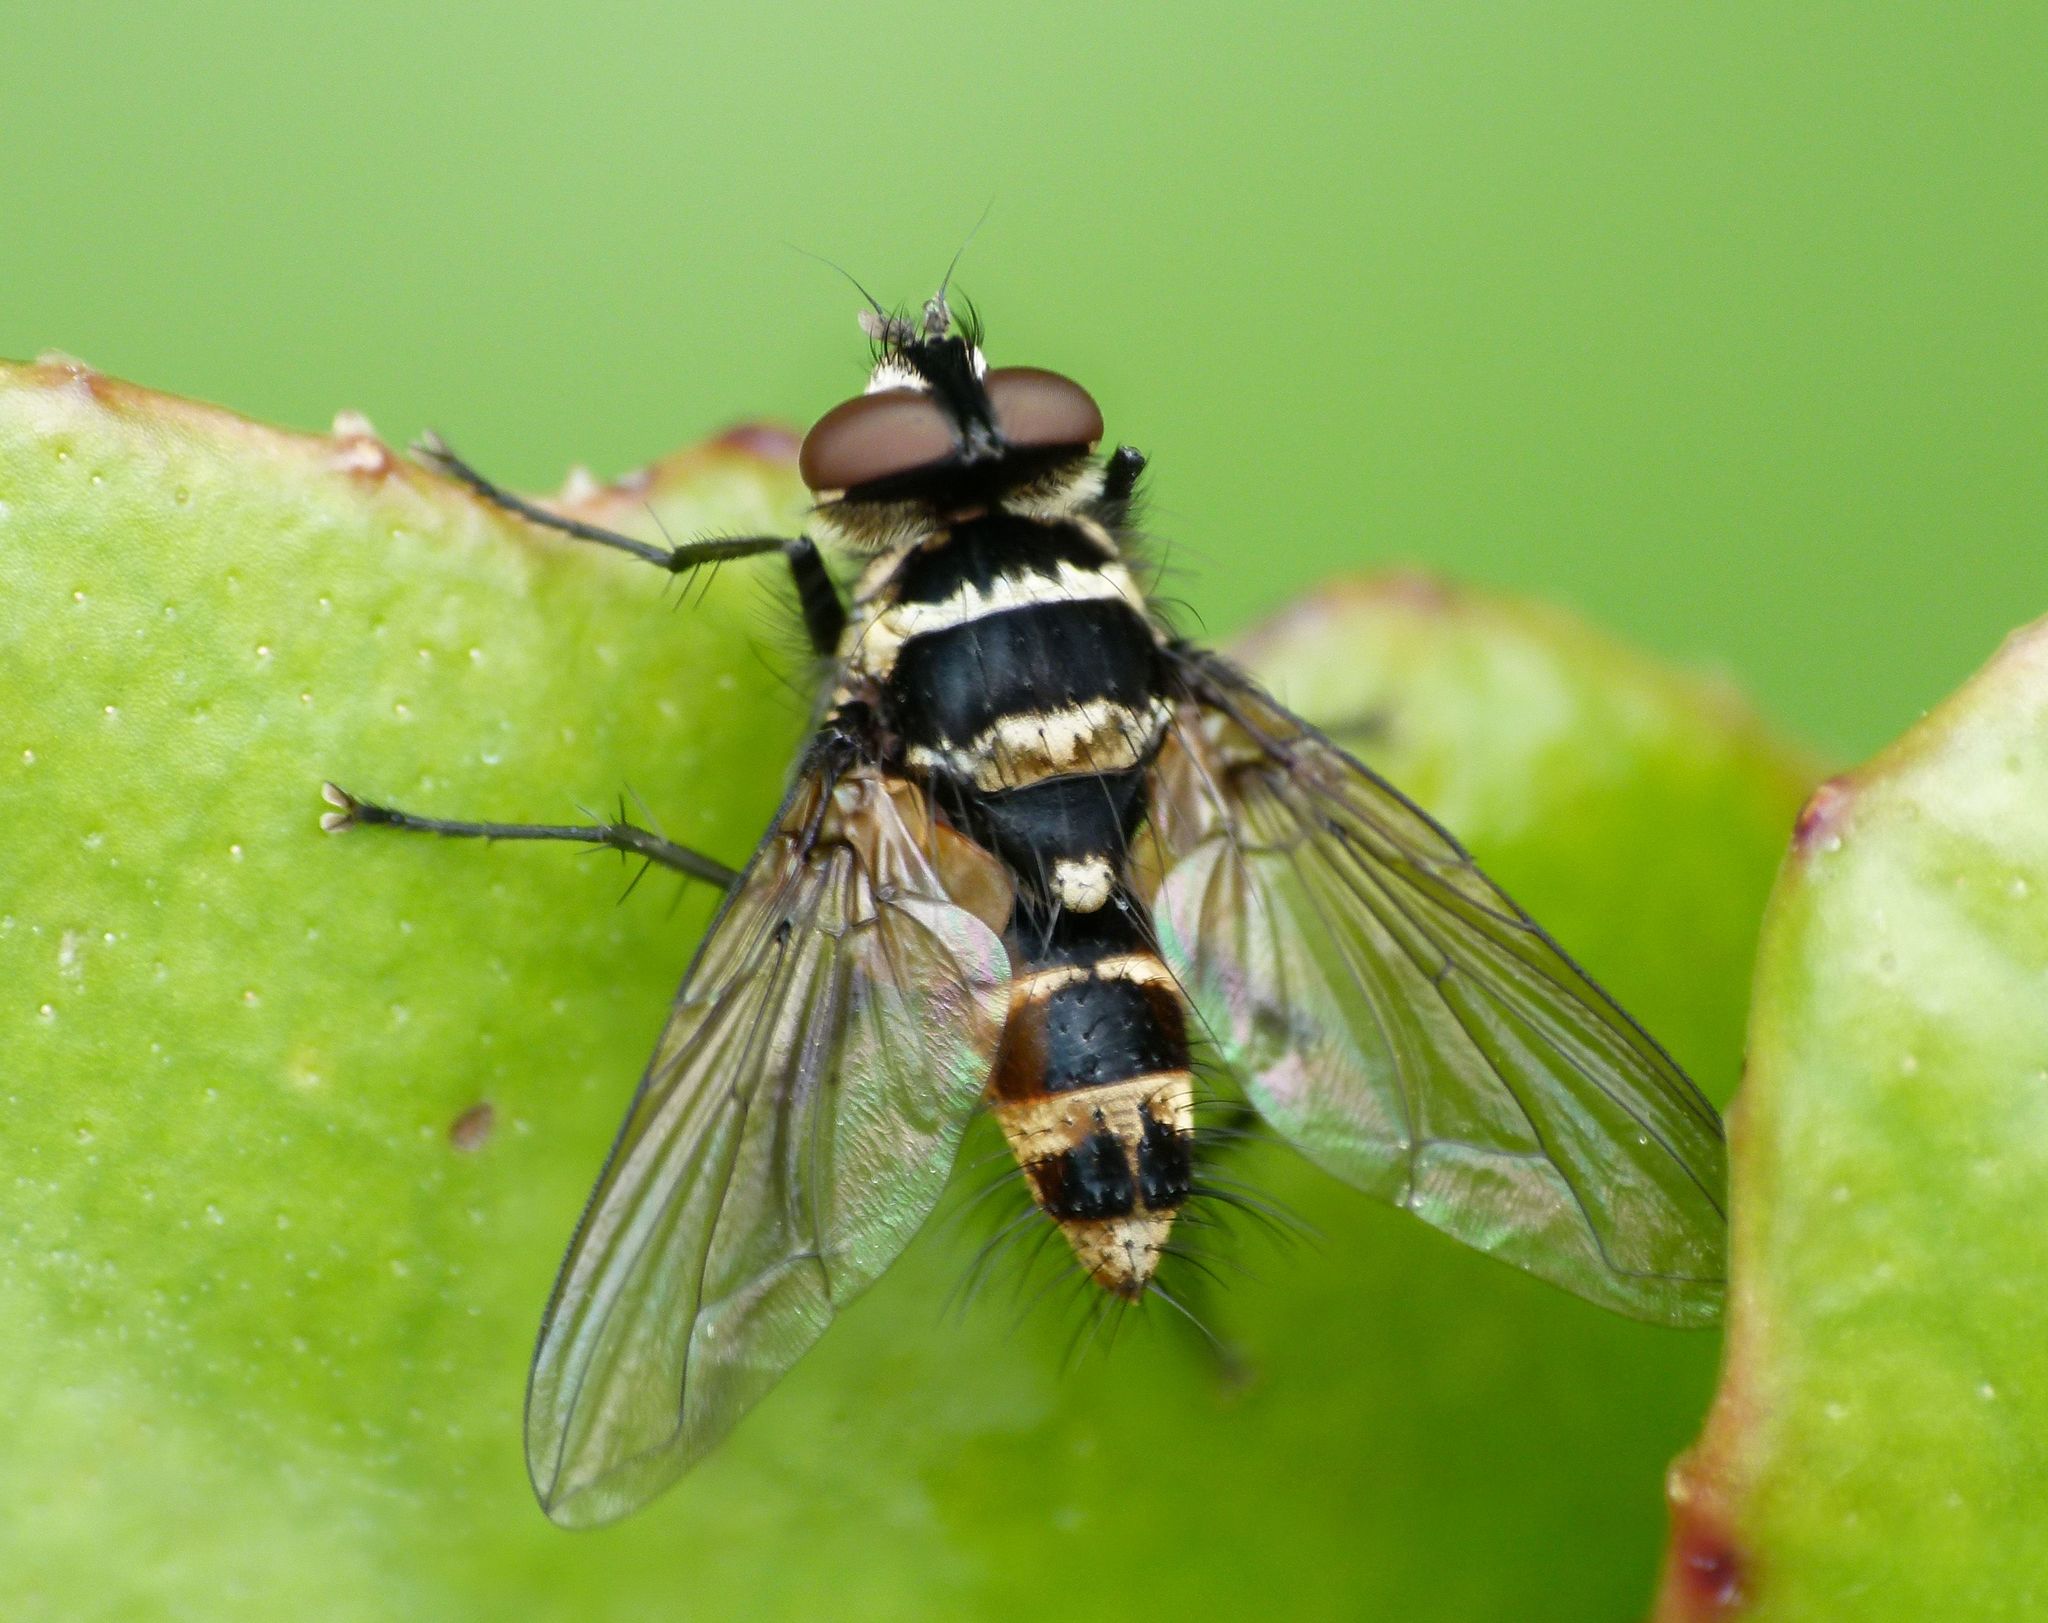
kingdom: Animalia
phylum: Arthropoda
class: Insecta
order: Diptera
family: Tachinidae
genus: Trigonospila
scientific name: Trigonospila brevifacies
